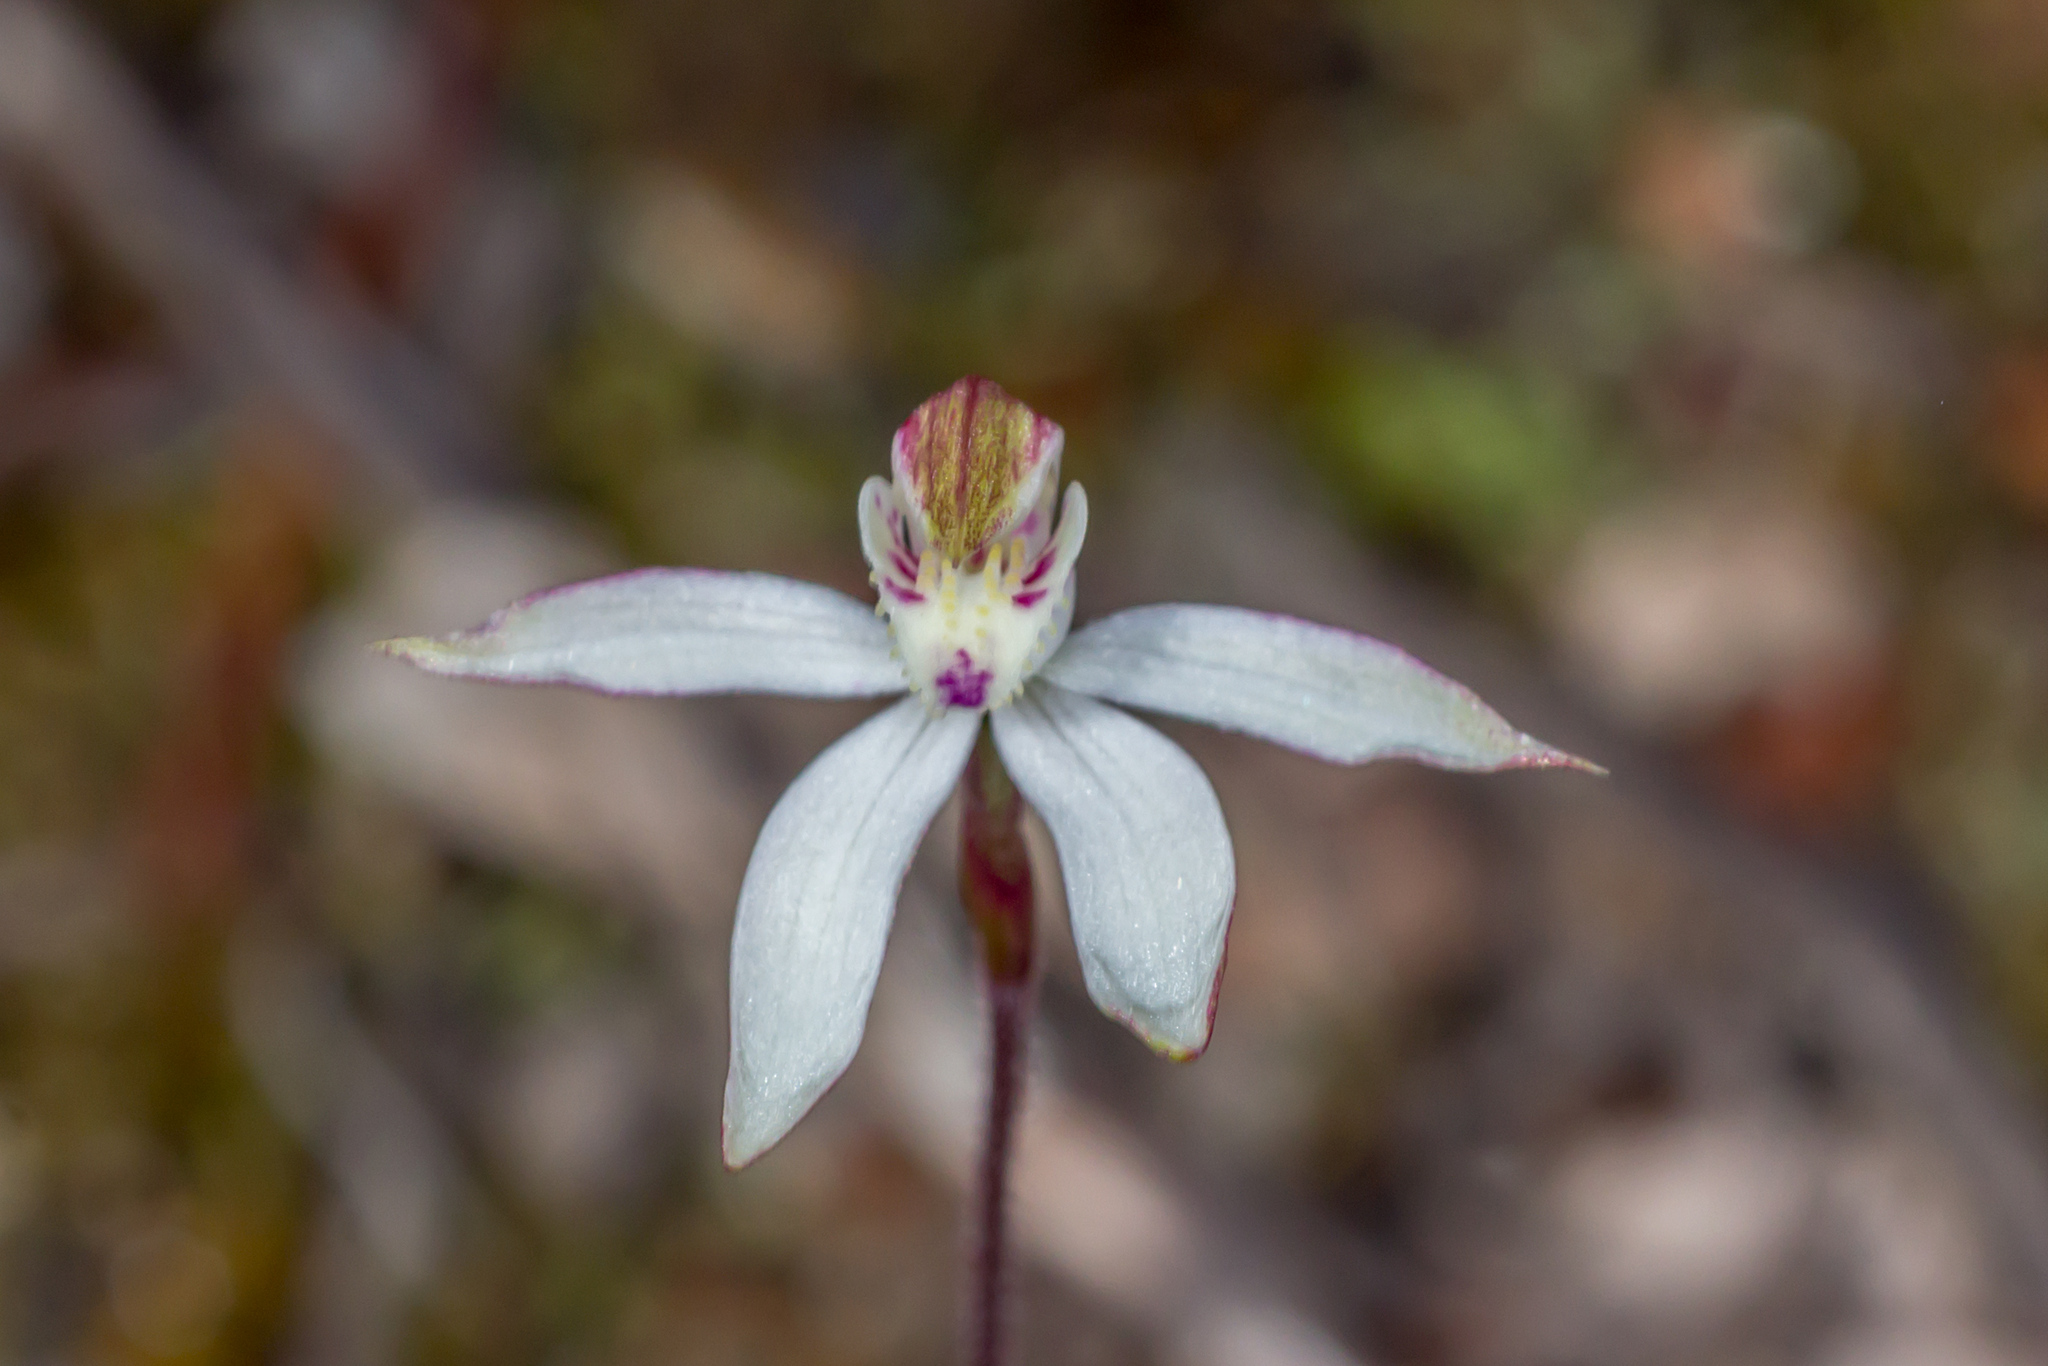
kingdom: Plantae
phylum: Tracheophyta
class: Liliopsida
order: Asparagales
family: Orchidaceae
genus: Caladenia
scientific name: Caladenia moschata
